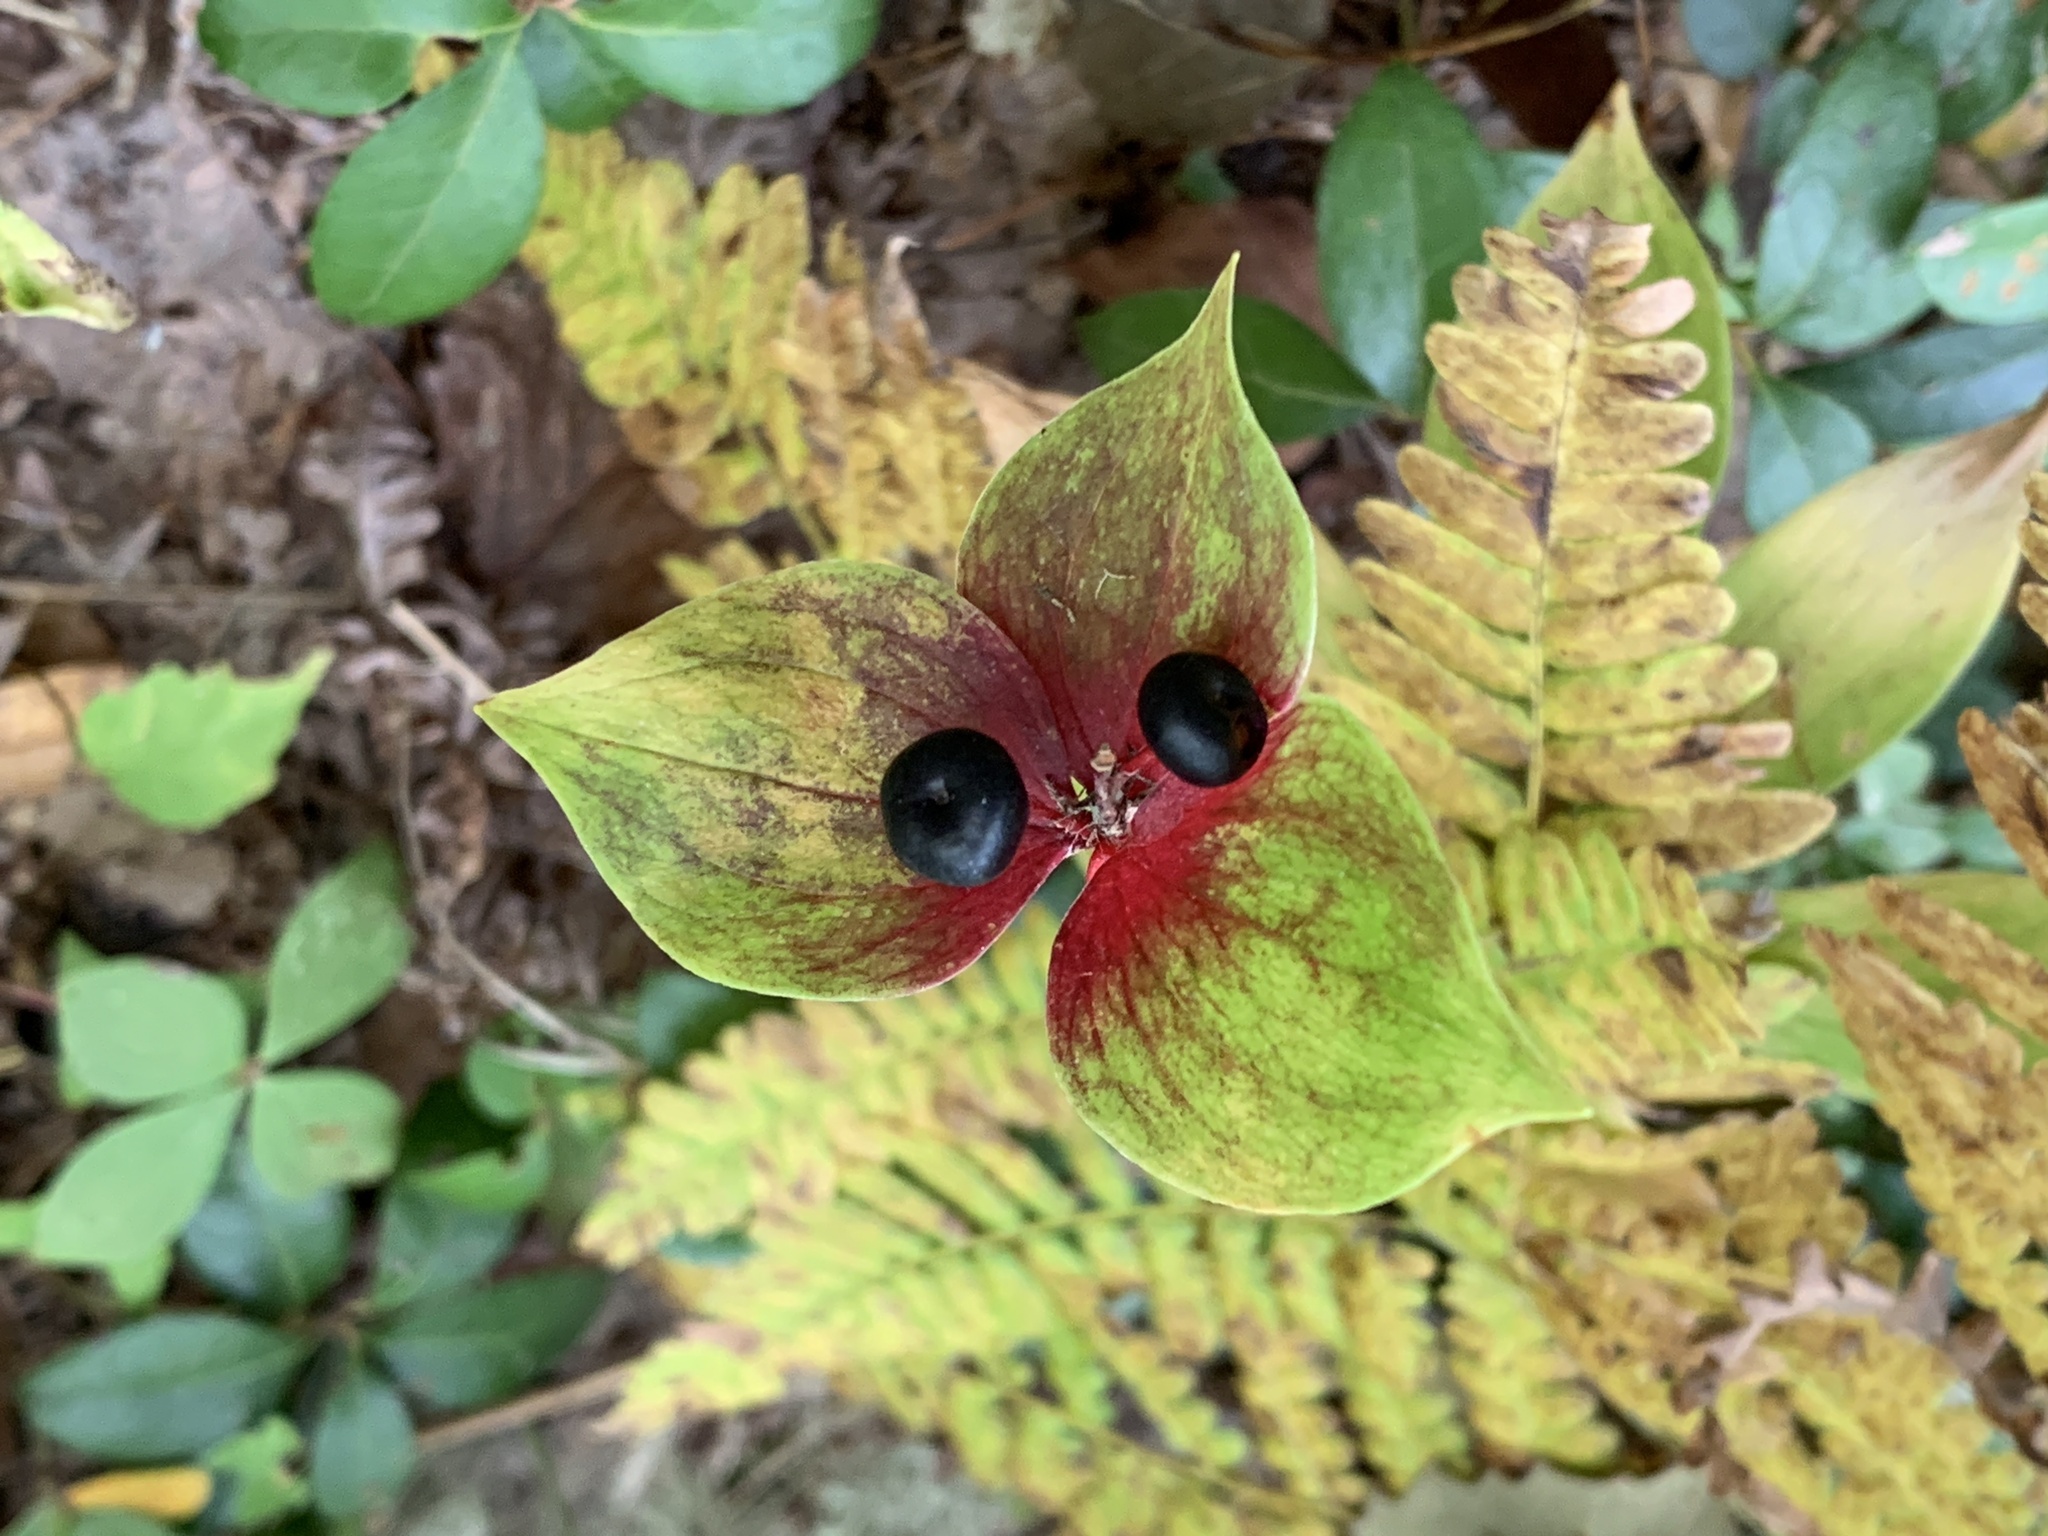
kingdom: Plantae
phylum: Tracheophyta
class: Liliopsida
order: Liliales
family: Liliaceae
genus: Medeola
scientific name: Medeola virginiana
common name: Indian cucumber-root
